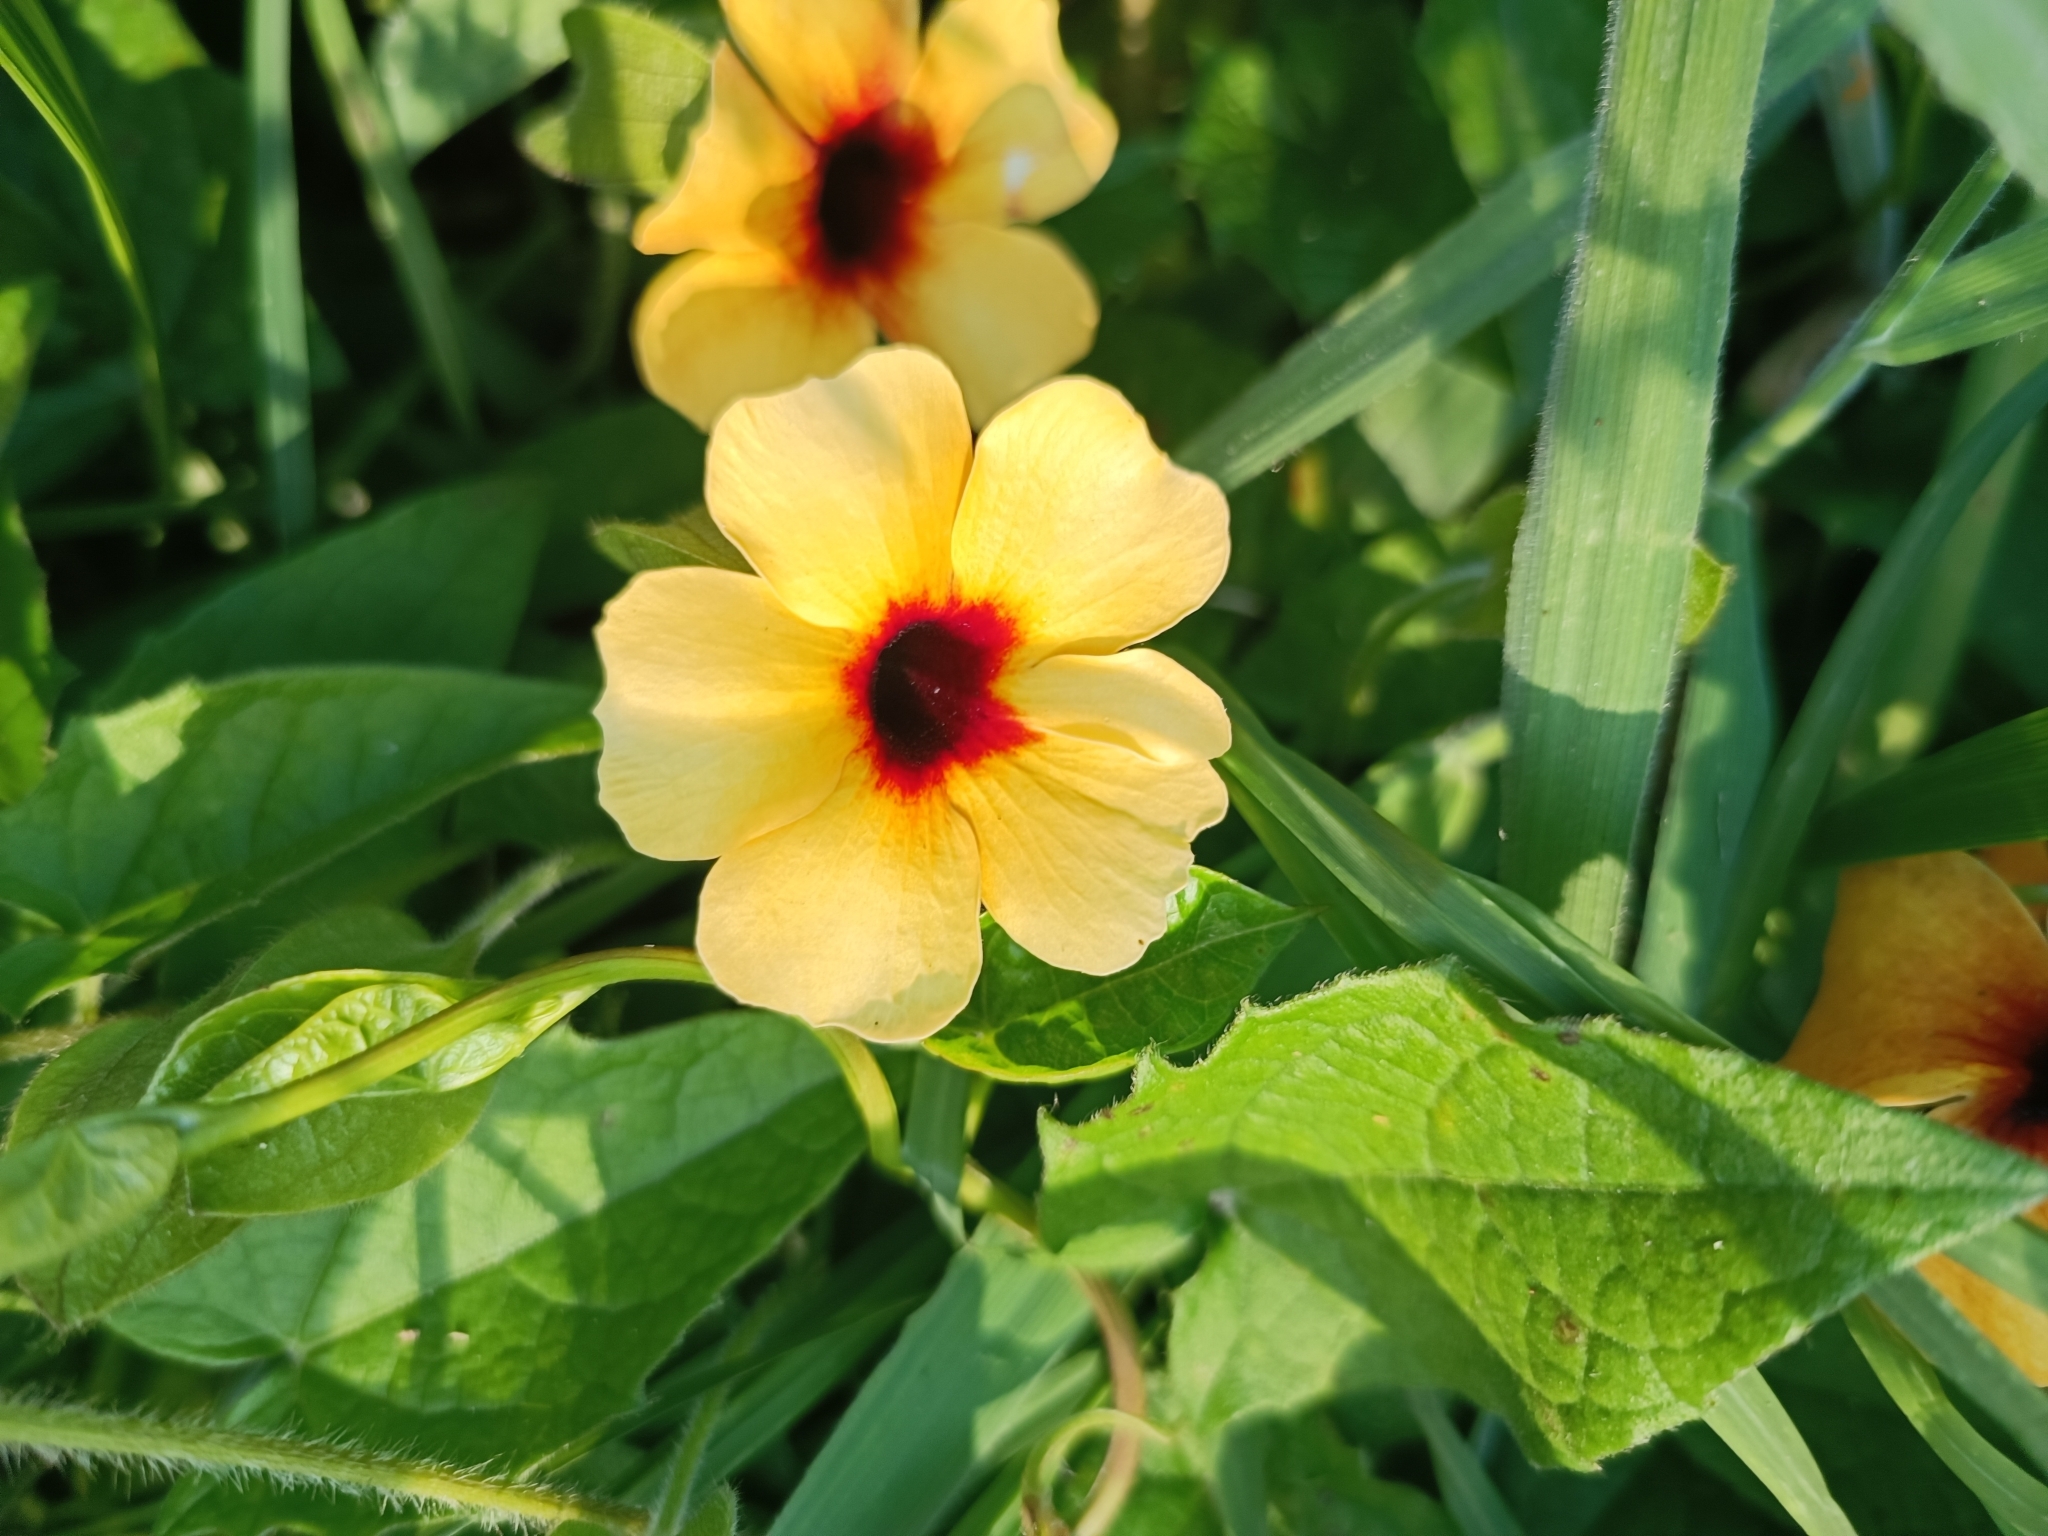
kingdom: Plantae
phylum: Tracheophyta
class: Magnoliopsida
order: Lamiales
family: Acanthaceae
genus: Thunbergia
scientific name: Thunbergia alata
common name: Blackeyed susan vine
